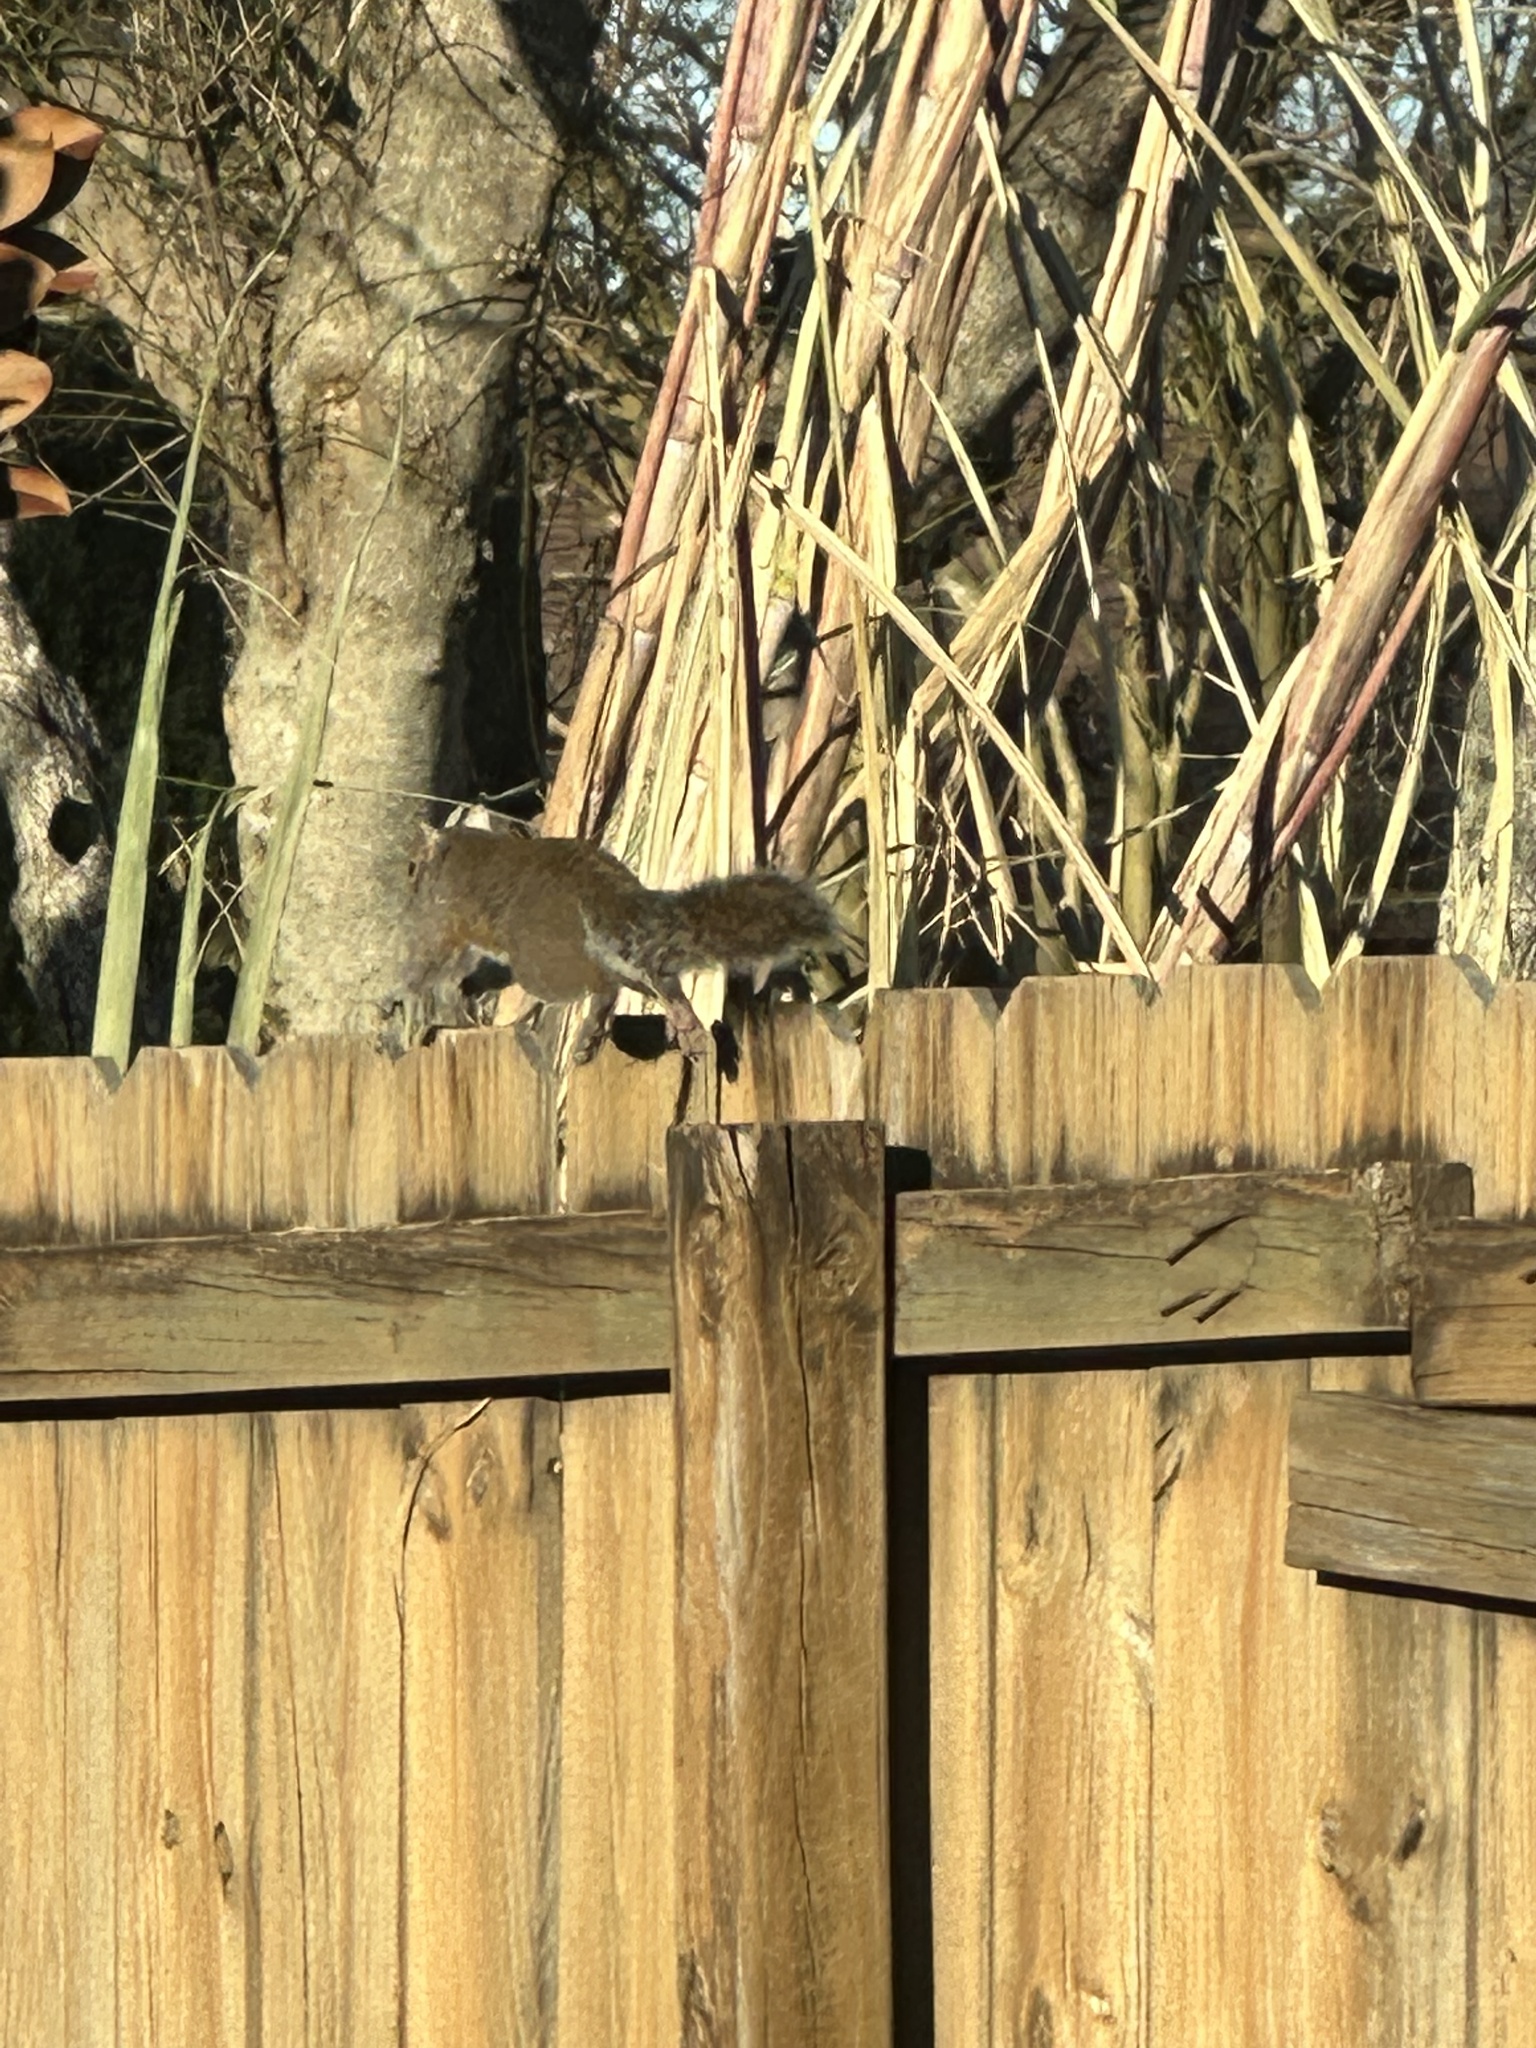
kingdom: Animalia
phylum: Chordata
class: Mammalia
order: Rodentia
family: Sciuridae
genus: Sciurus
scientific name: Sciurus carolinensis
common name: Eastern gray squirrel
